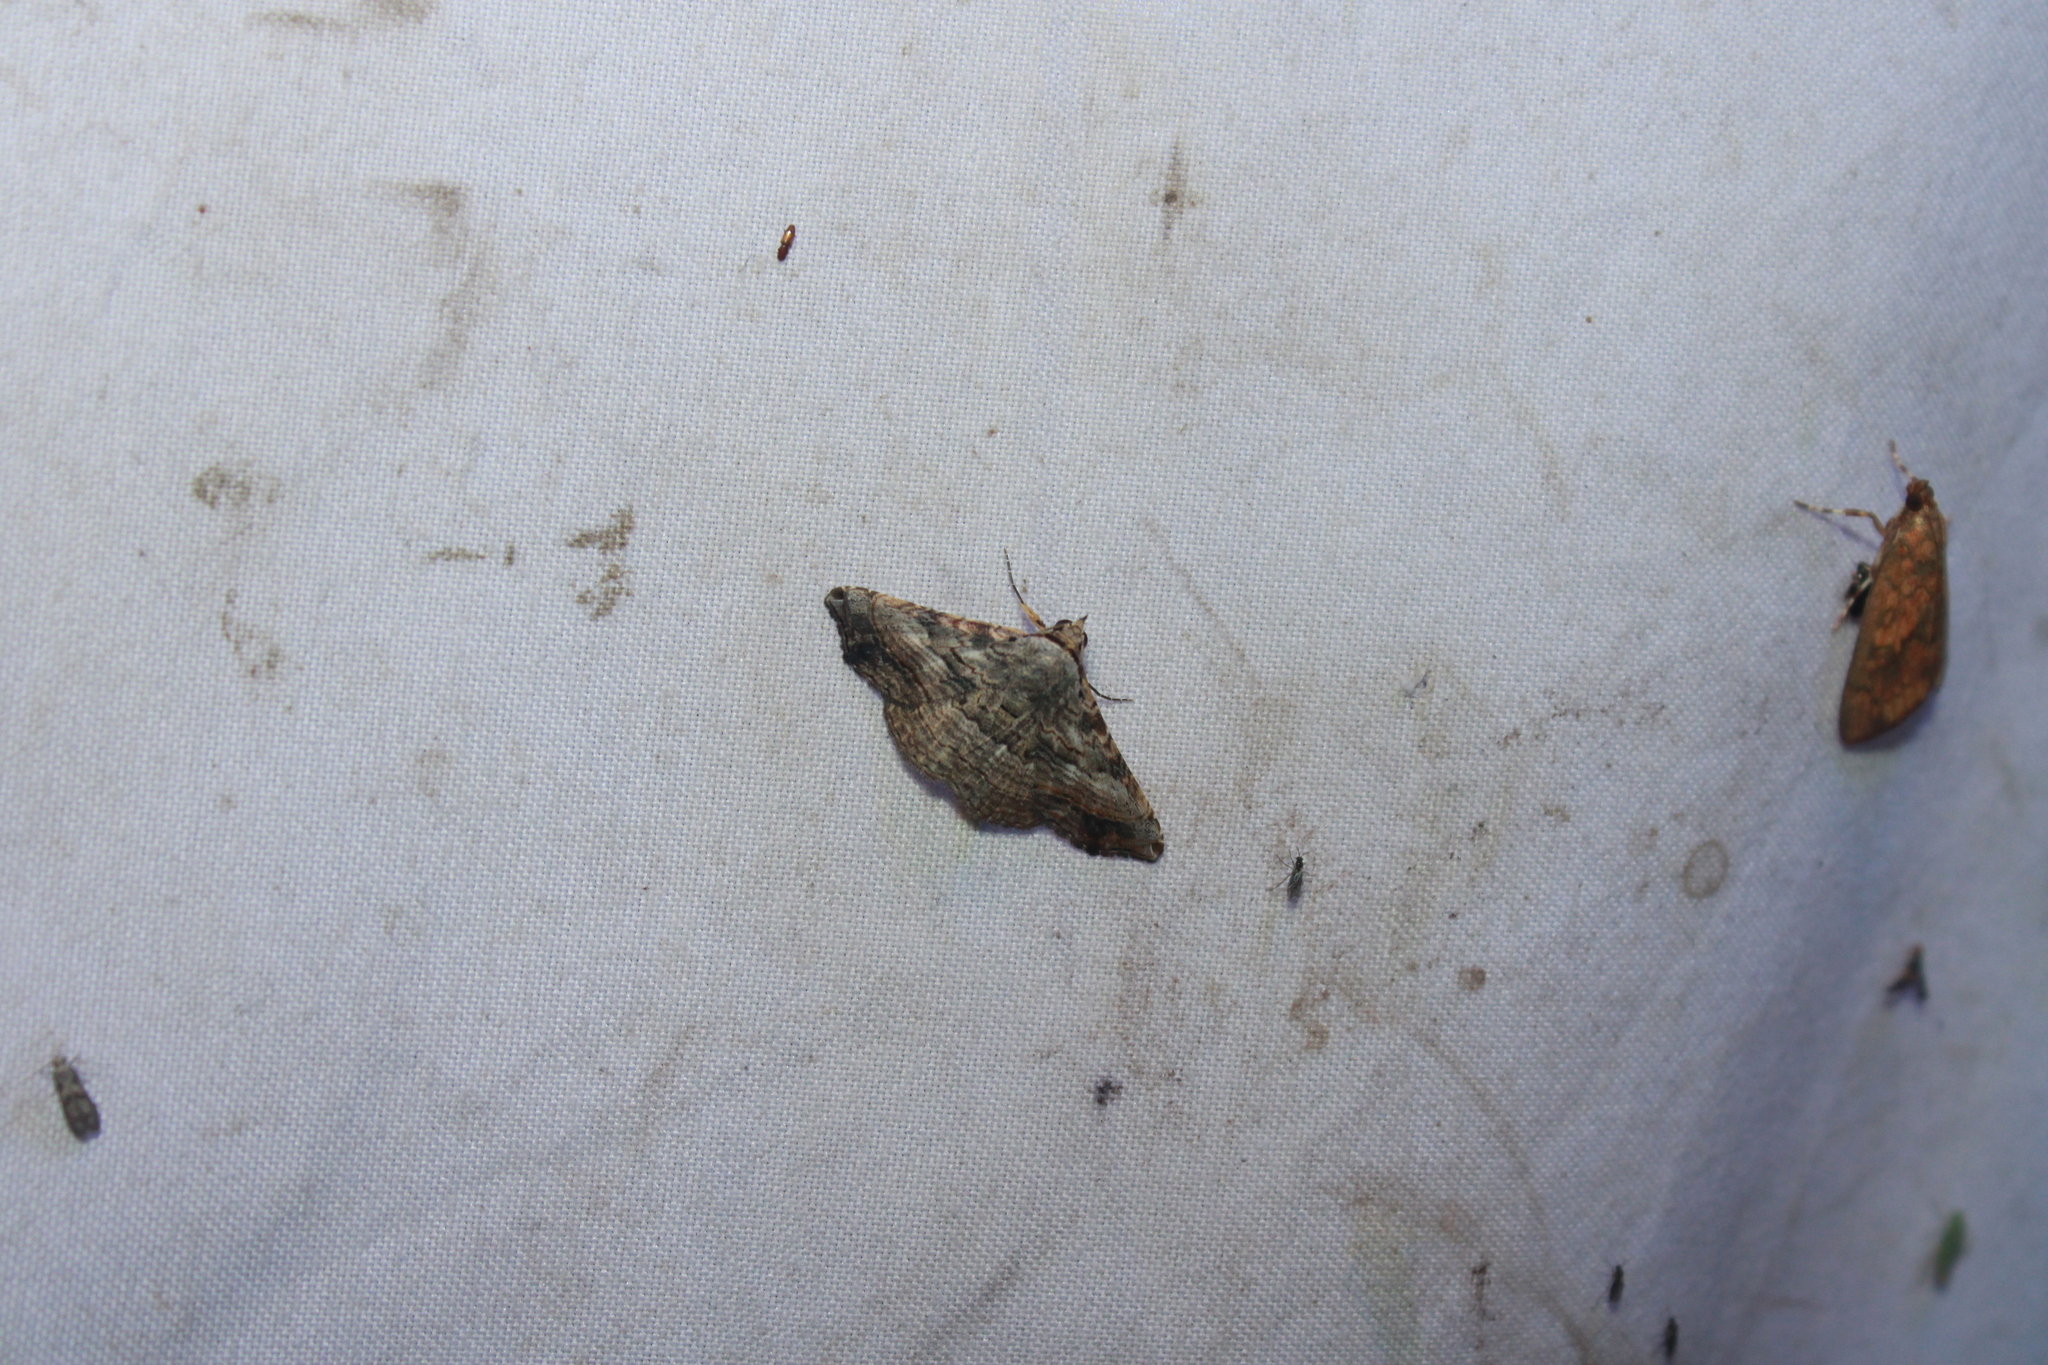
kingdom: Animalia
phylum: Arthropoda
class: Insecta
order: Lepidoptera
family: Erebidae
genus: Tyrissa
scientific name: Tyrissa multilinea
